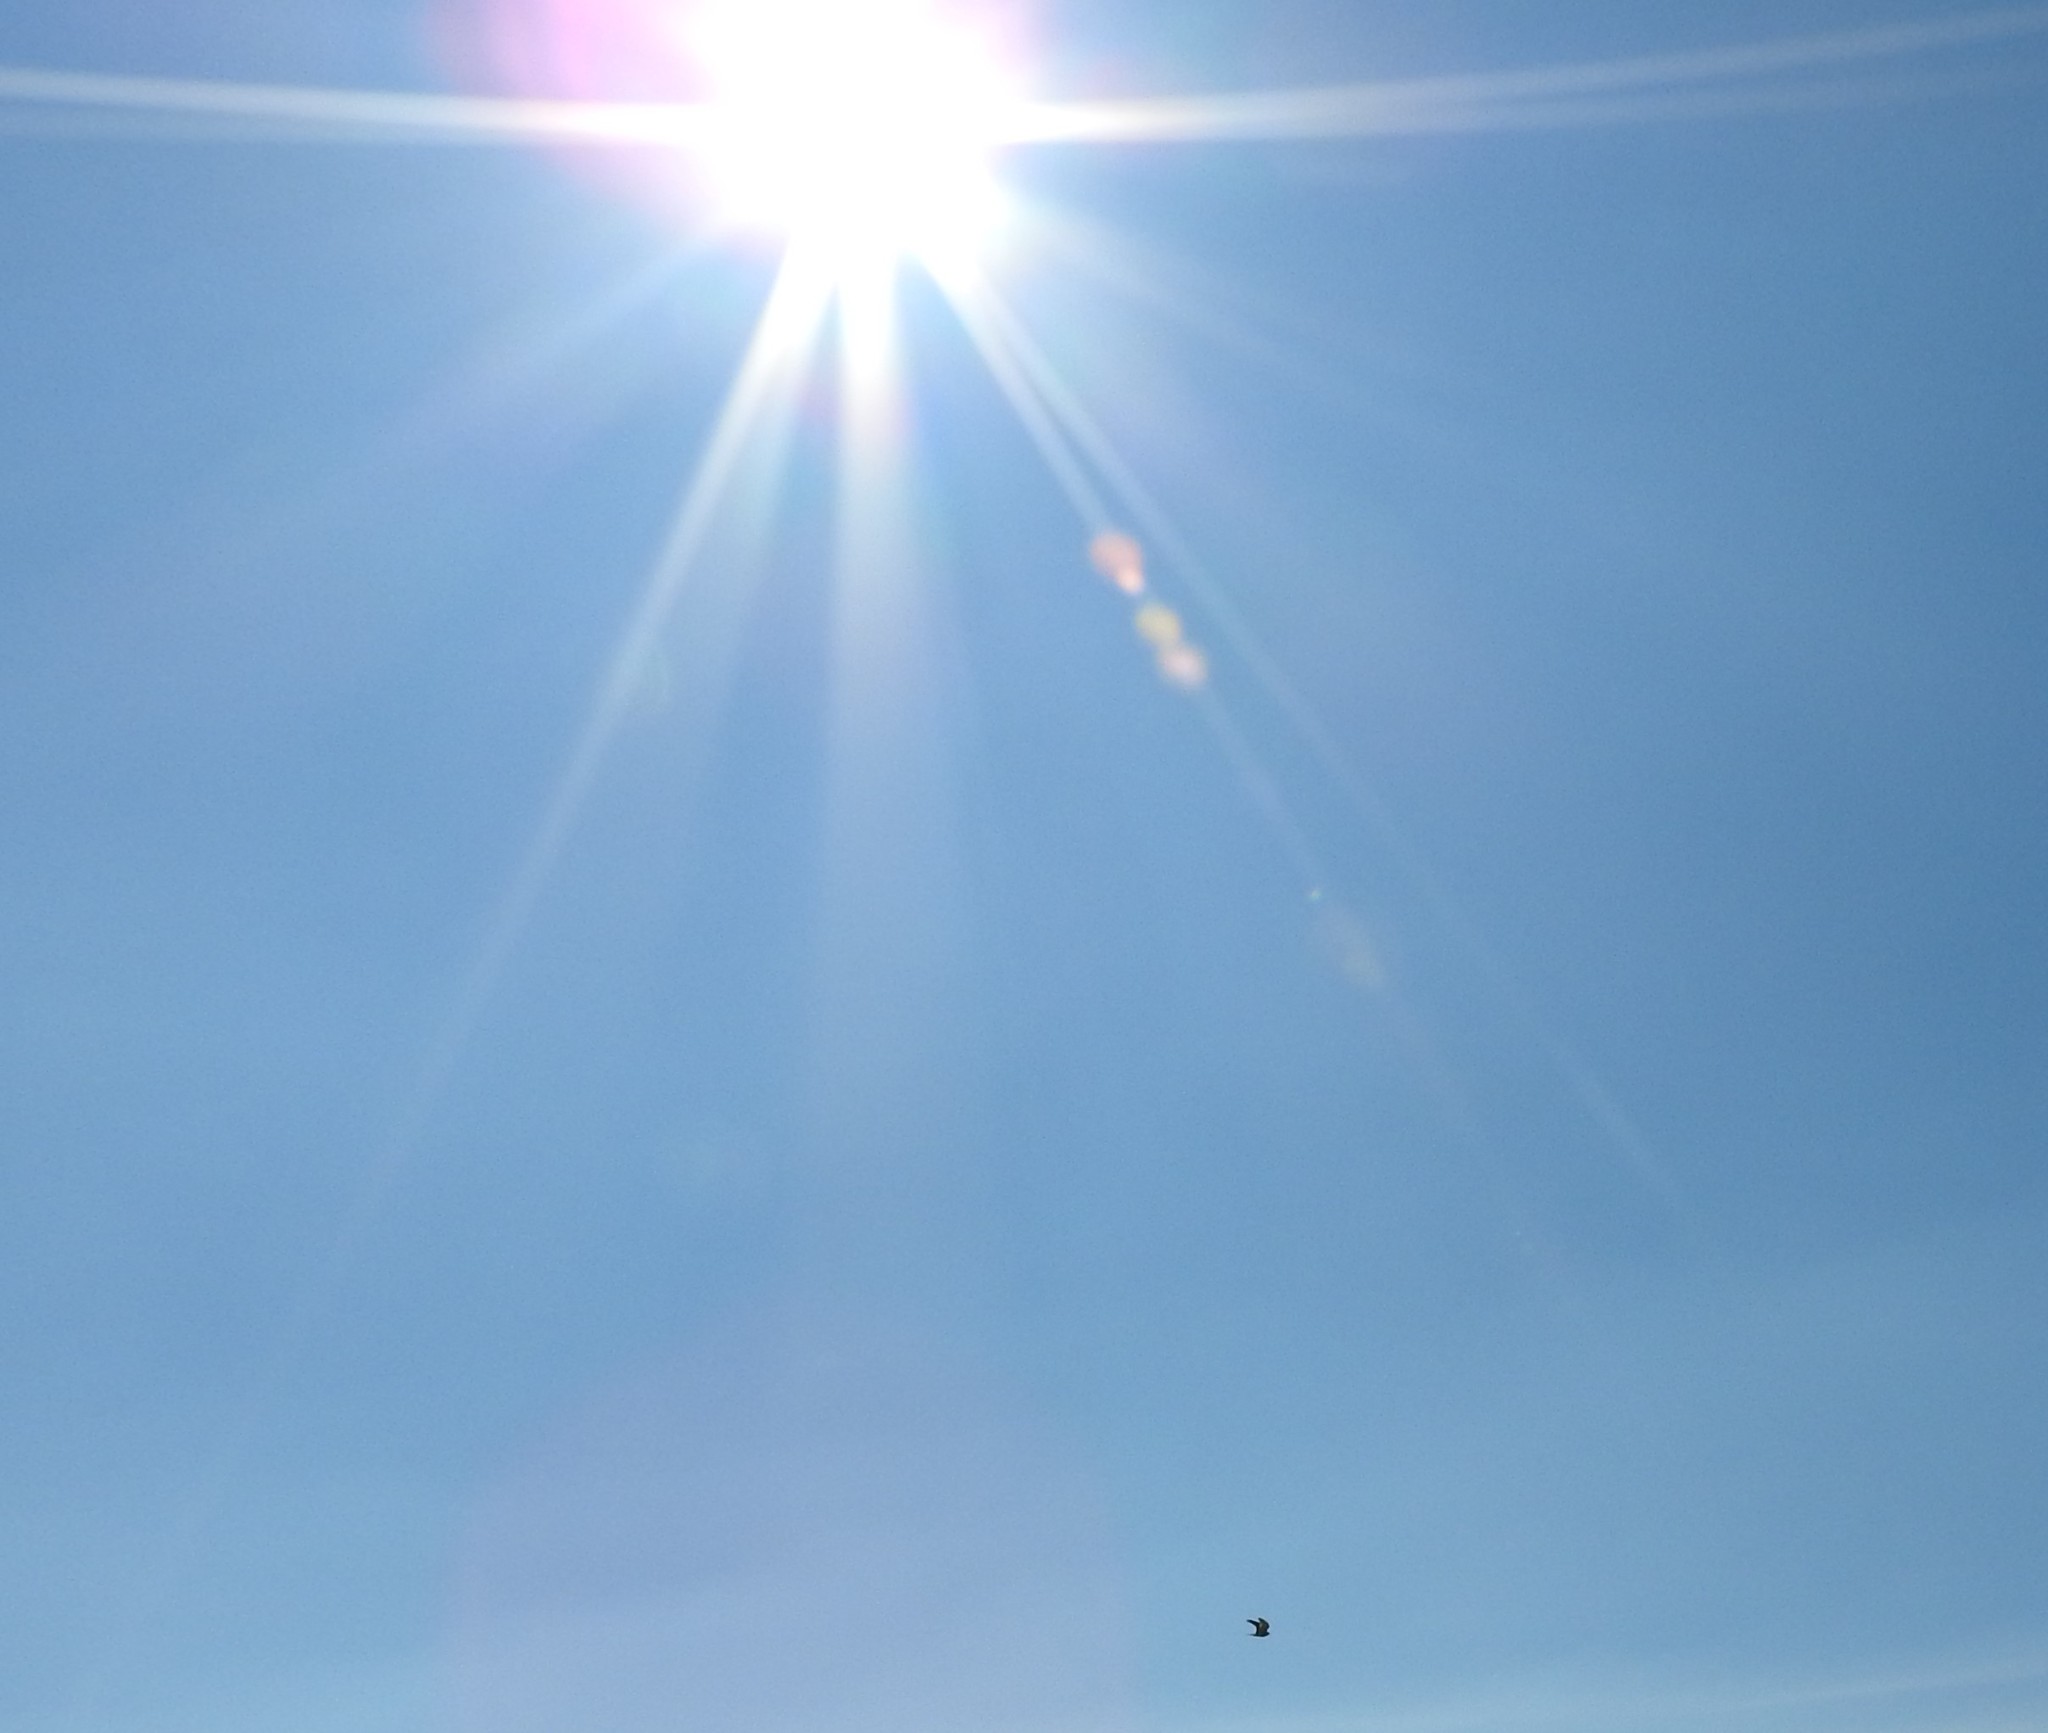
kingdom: Animalia
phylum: Chordata
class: Aves
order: Falconiformes
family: Falconidae
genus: Falco
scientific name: Falco sparverius
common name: American kestrel
